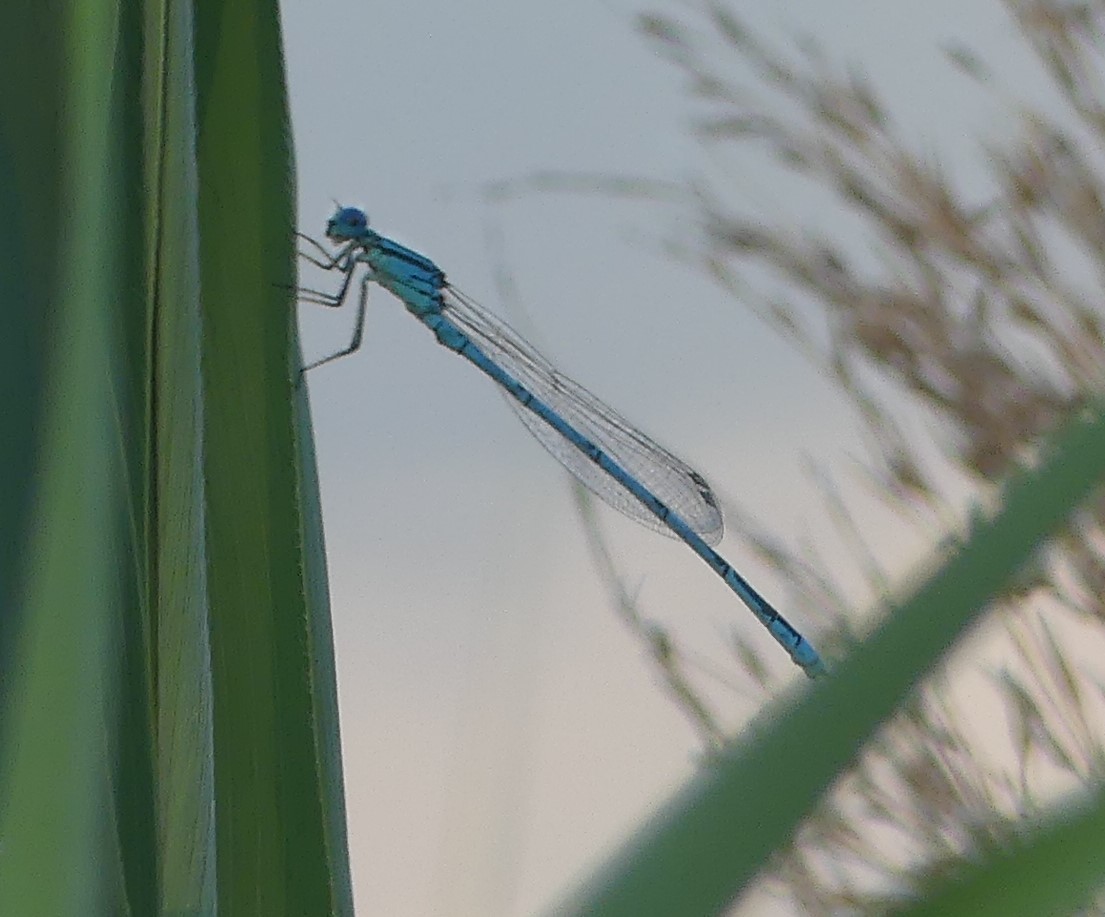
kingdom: Animalia
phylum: Arthropoda
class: Insecta
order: Odonata
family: Coenagrionidae
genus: Erythromma
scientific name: Erythromma lindenii
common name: Blue-eye
